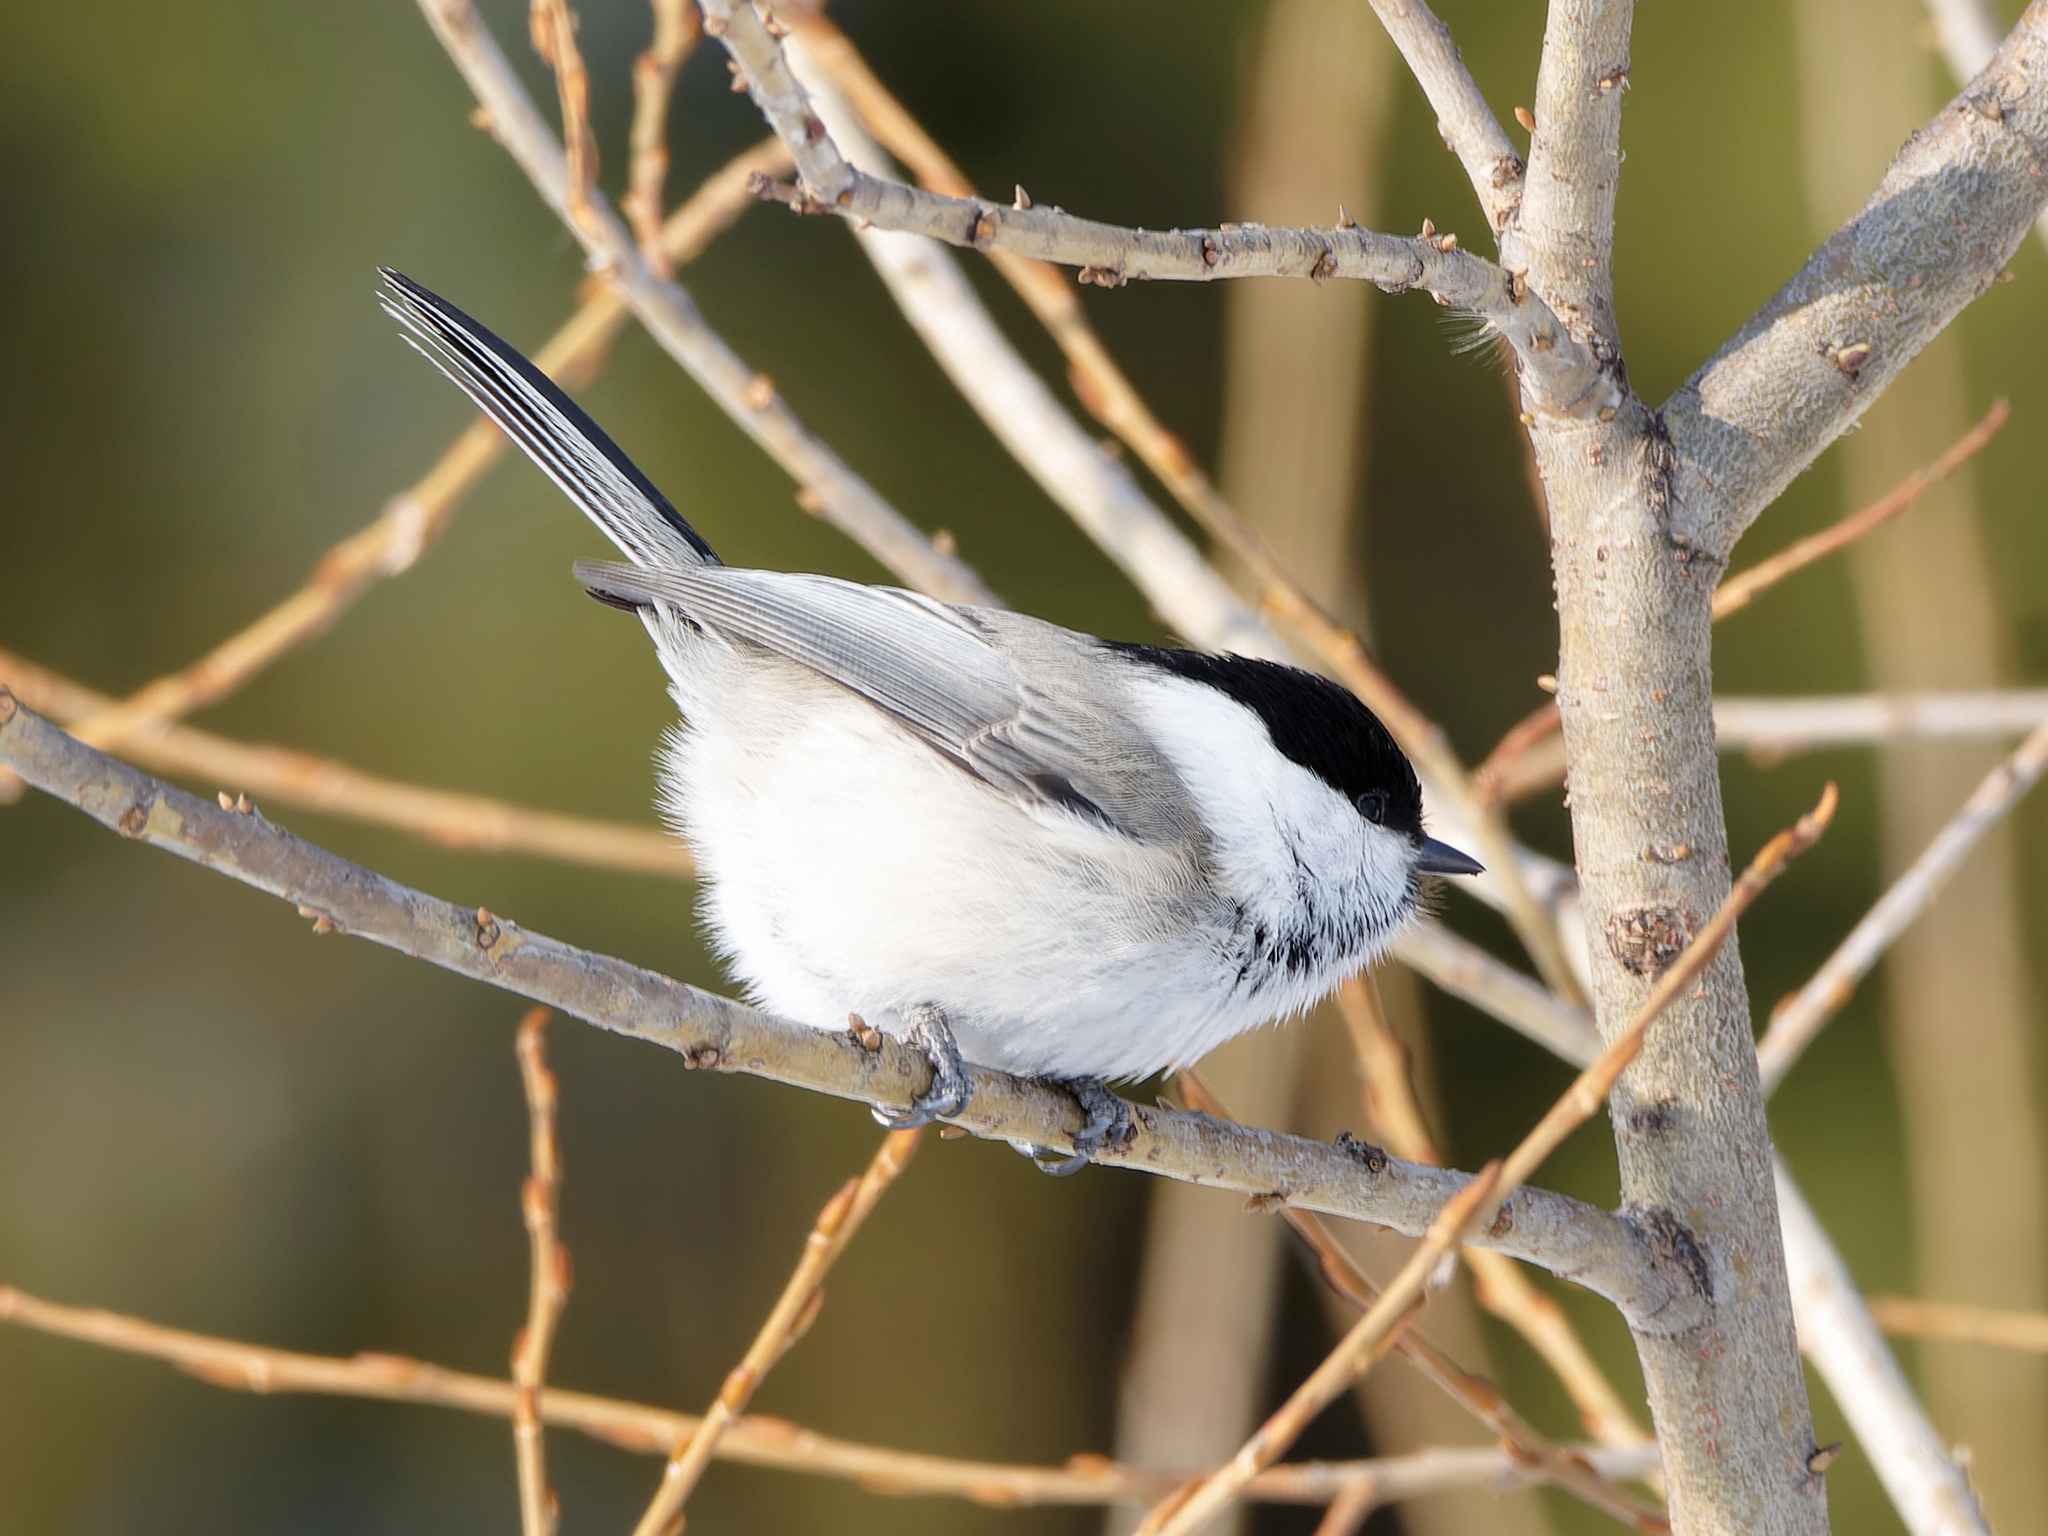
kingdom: Animalia
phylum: Chordata
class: Aves
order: Passeriformes
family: Paridae
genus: Poecile
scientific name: Poecile montanus
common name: Willow tit
